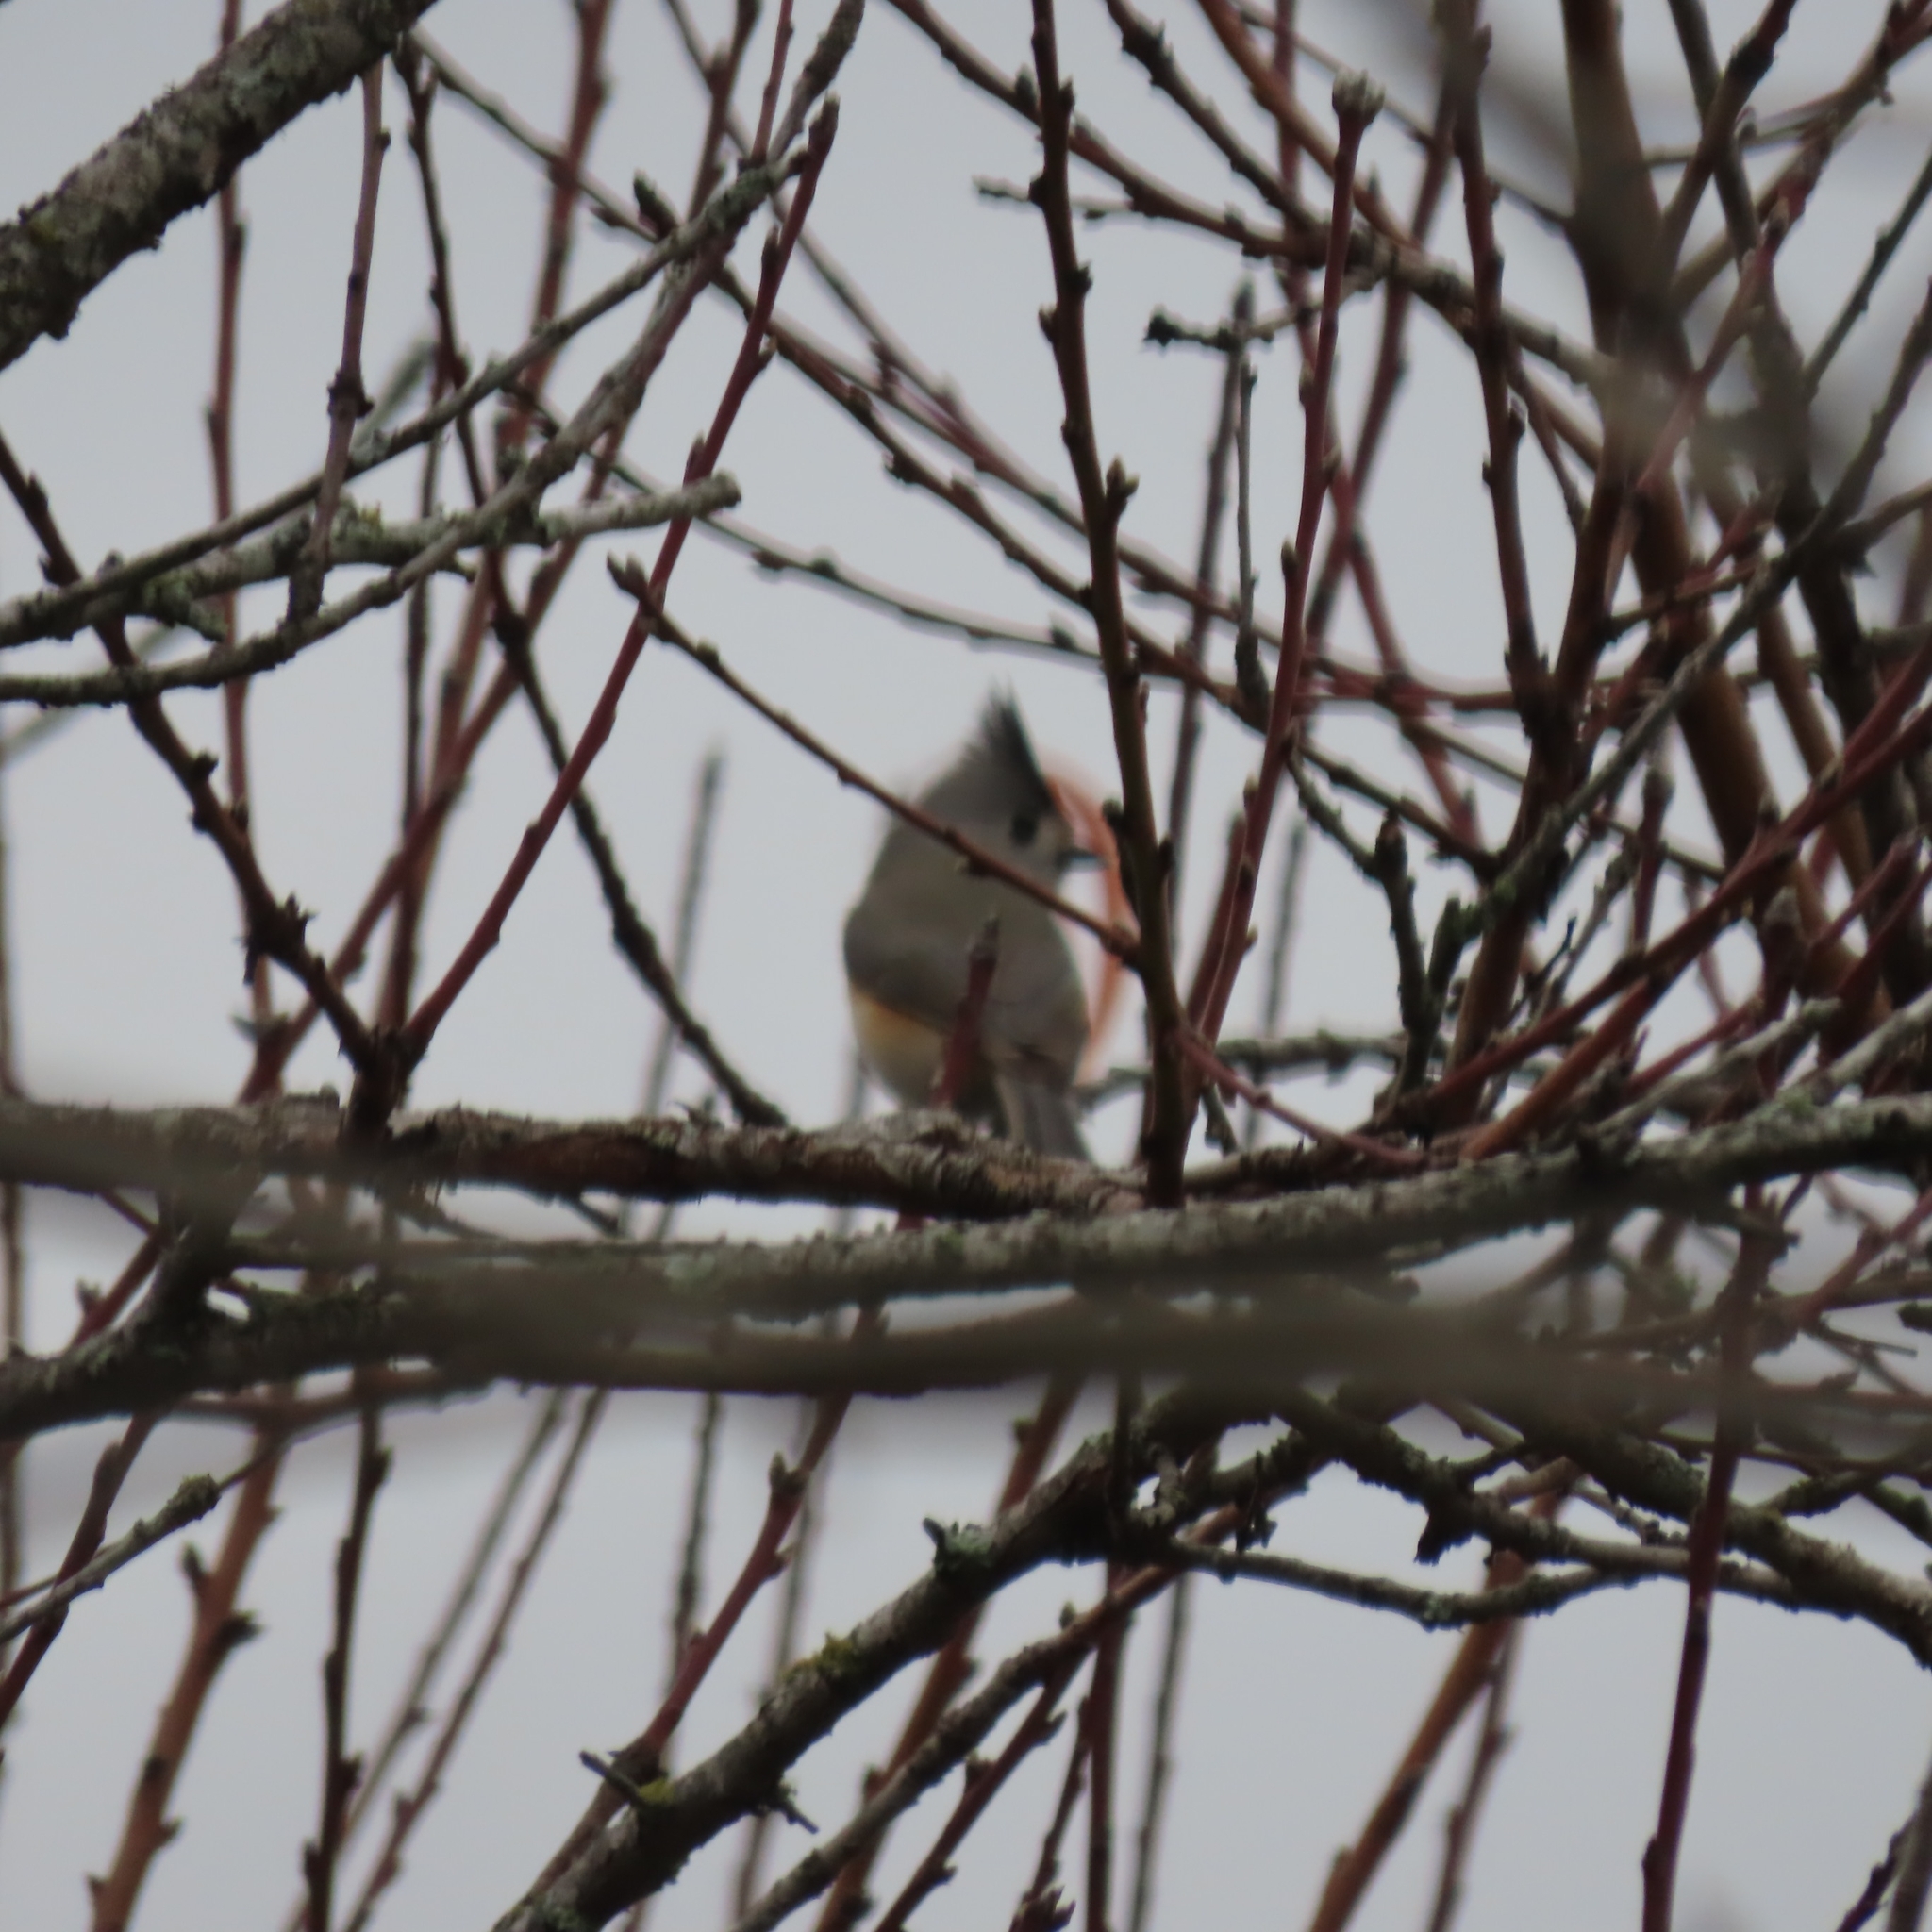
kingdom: Animalia
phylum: Chordata
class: Aves
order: Passeriformes
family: Paridae
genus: Baeolophus
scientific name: Baeolophus atricristatus
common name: Black-crested titmouse
